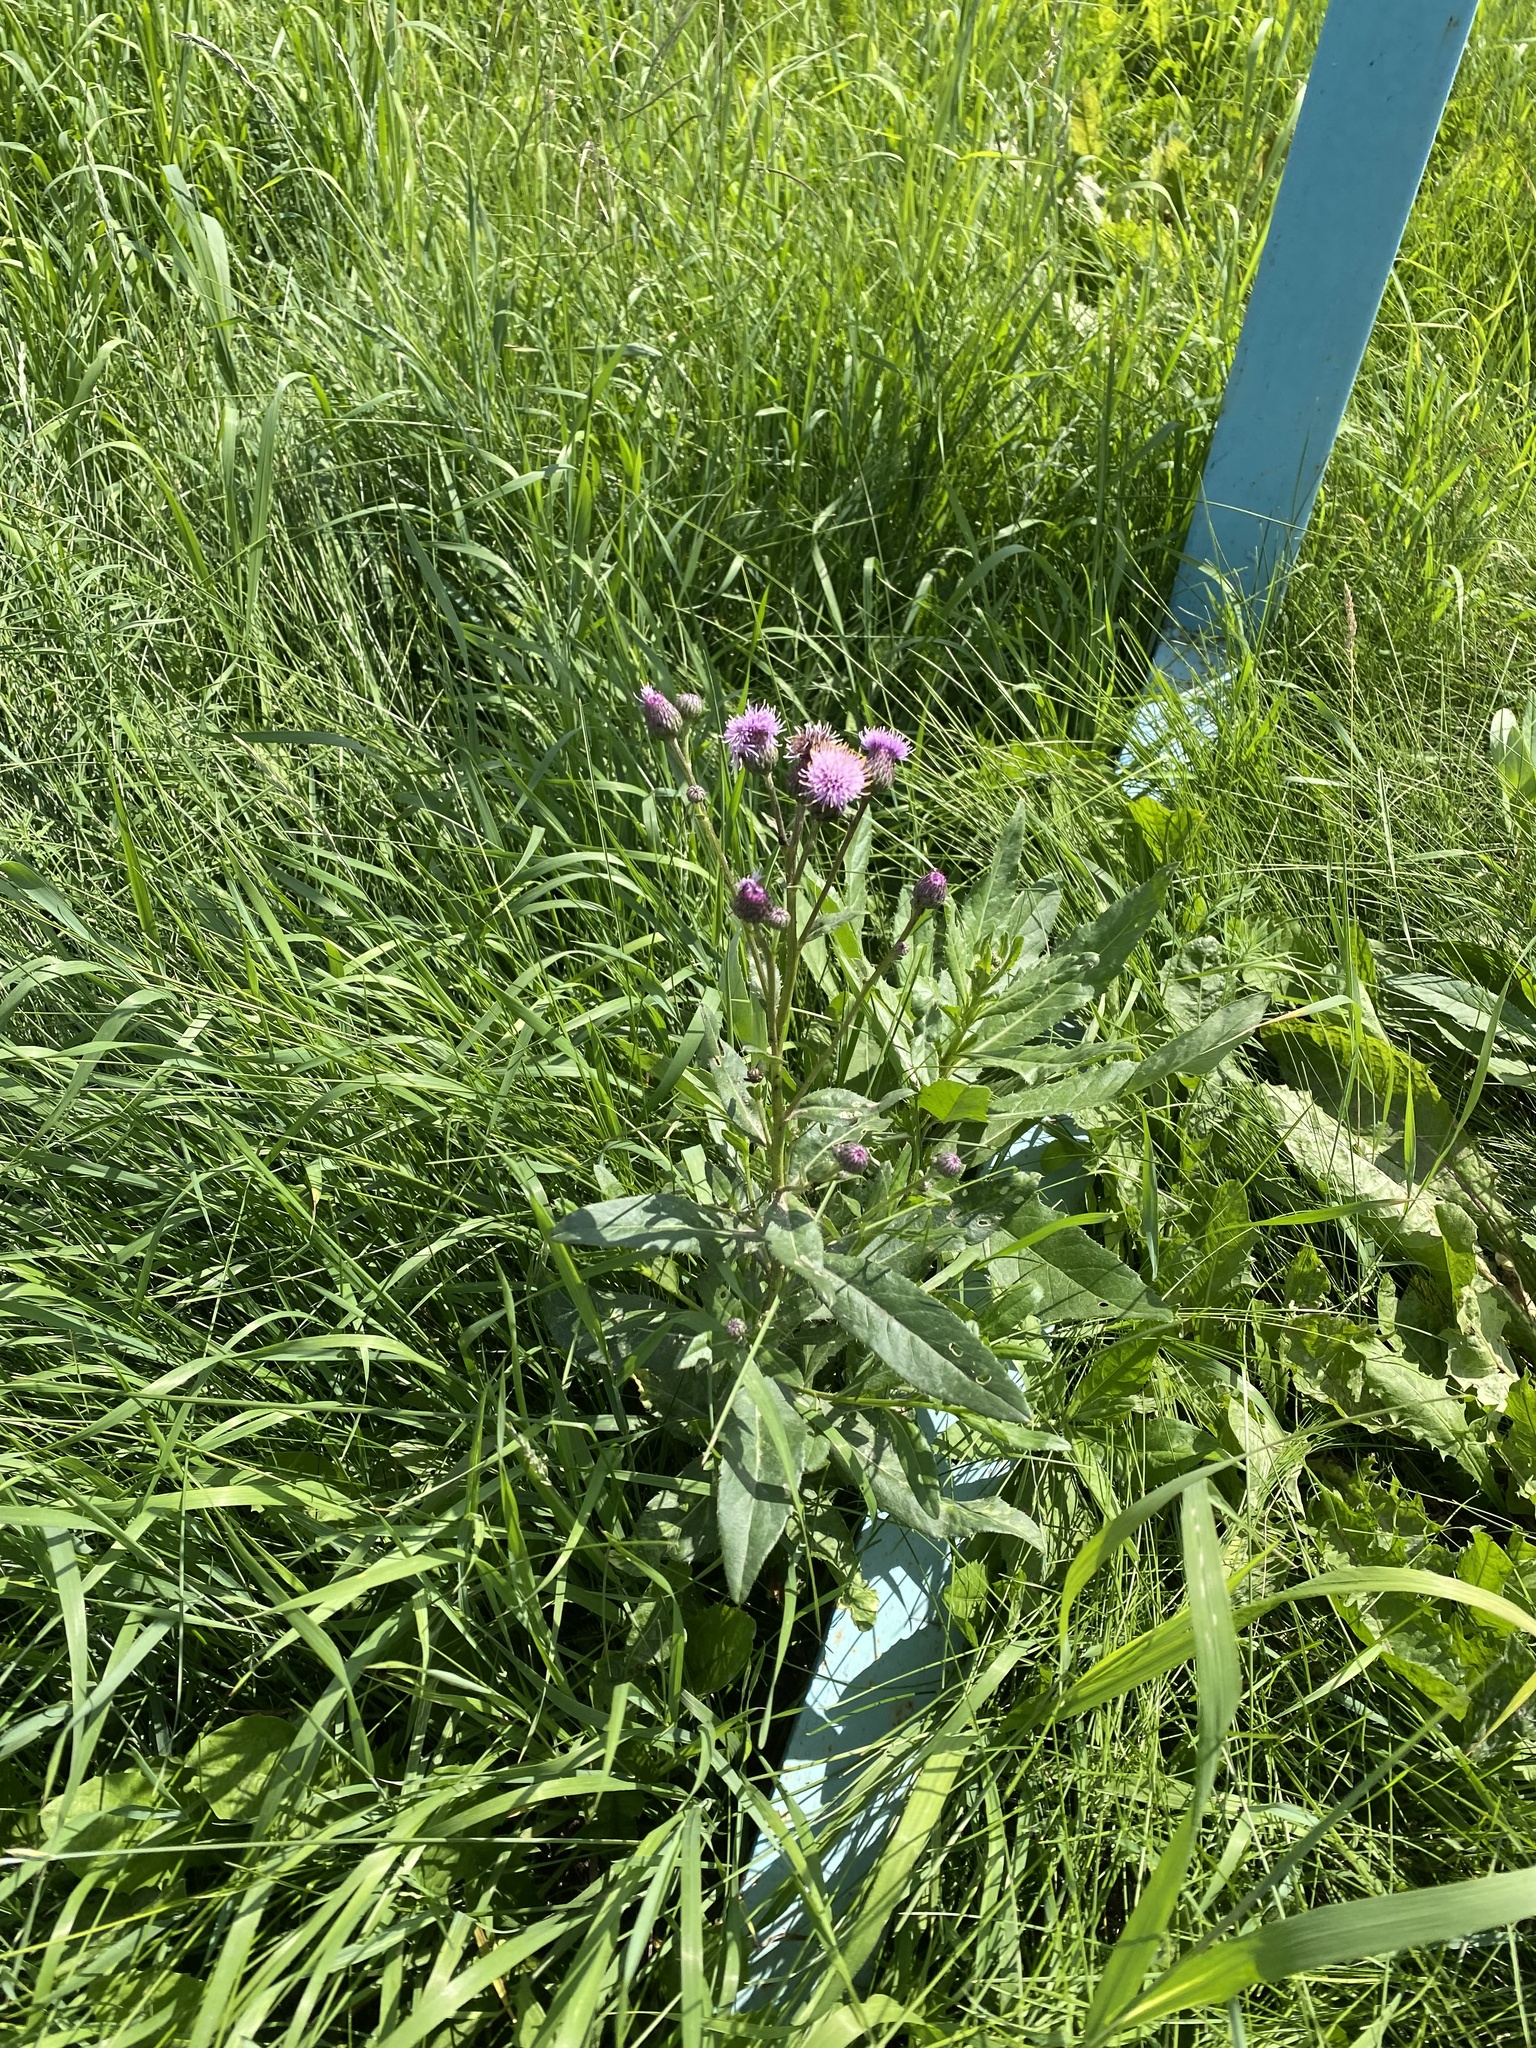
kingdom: Plantae
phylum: Tracheophyta
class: Magnoliopsida
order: Asterales
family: Asteraceae
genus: Cirsium
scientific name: Cirsium arvense
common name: Creeping thistle
